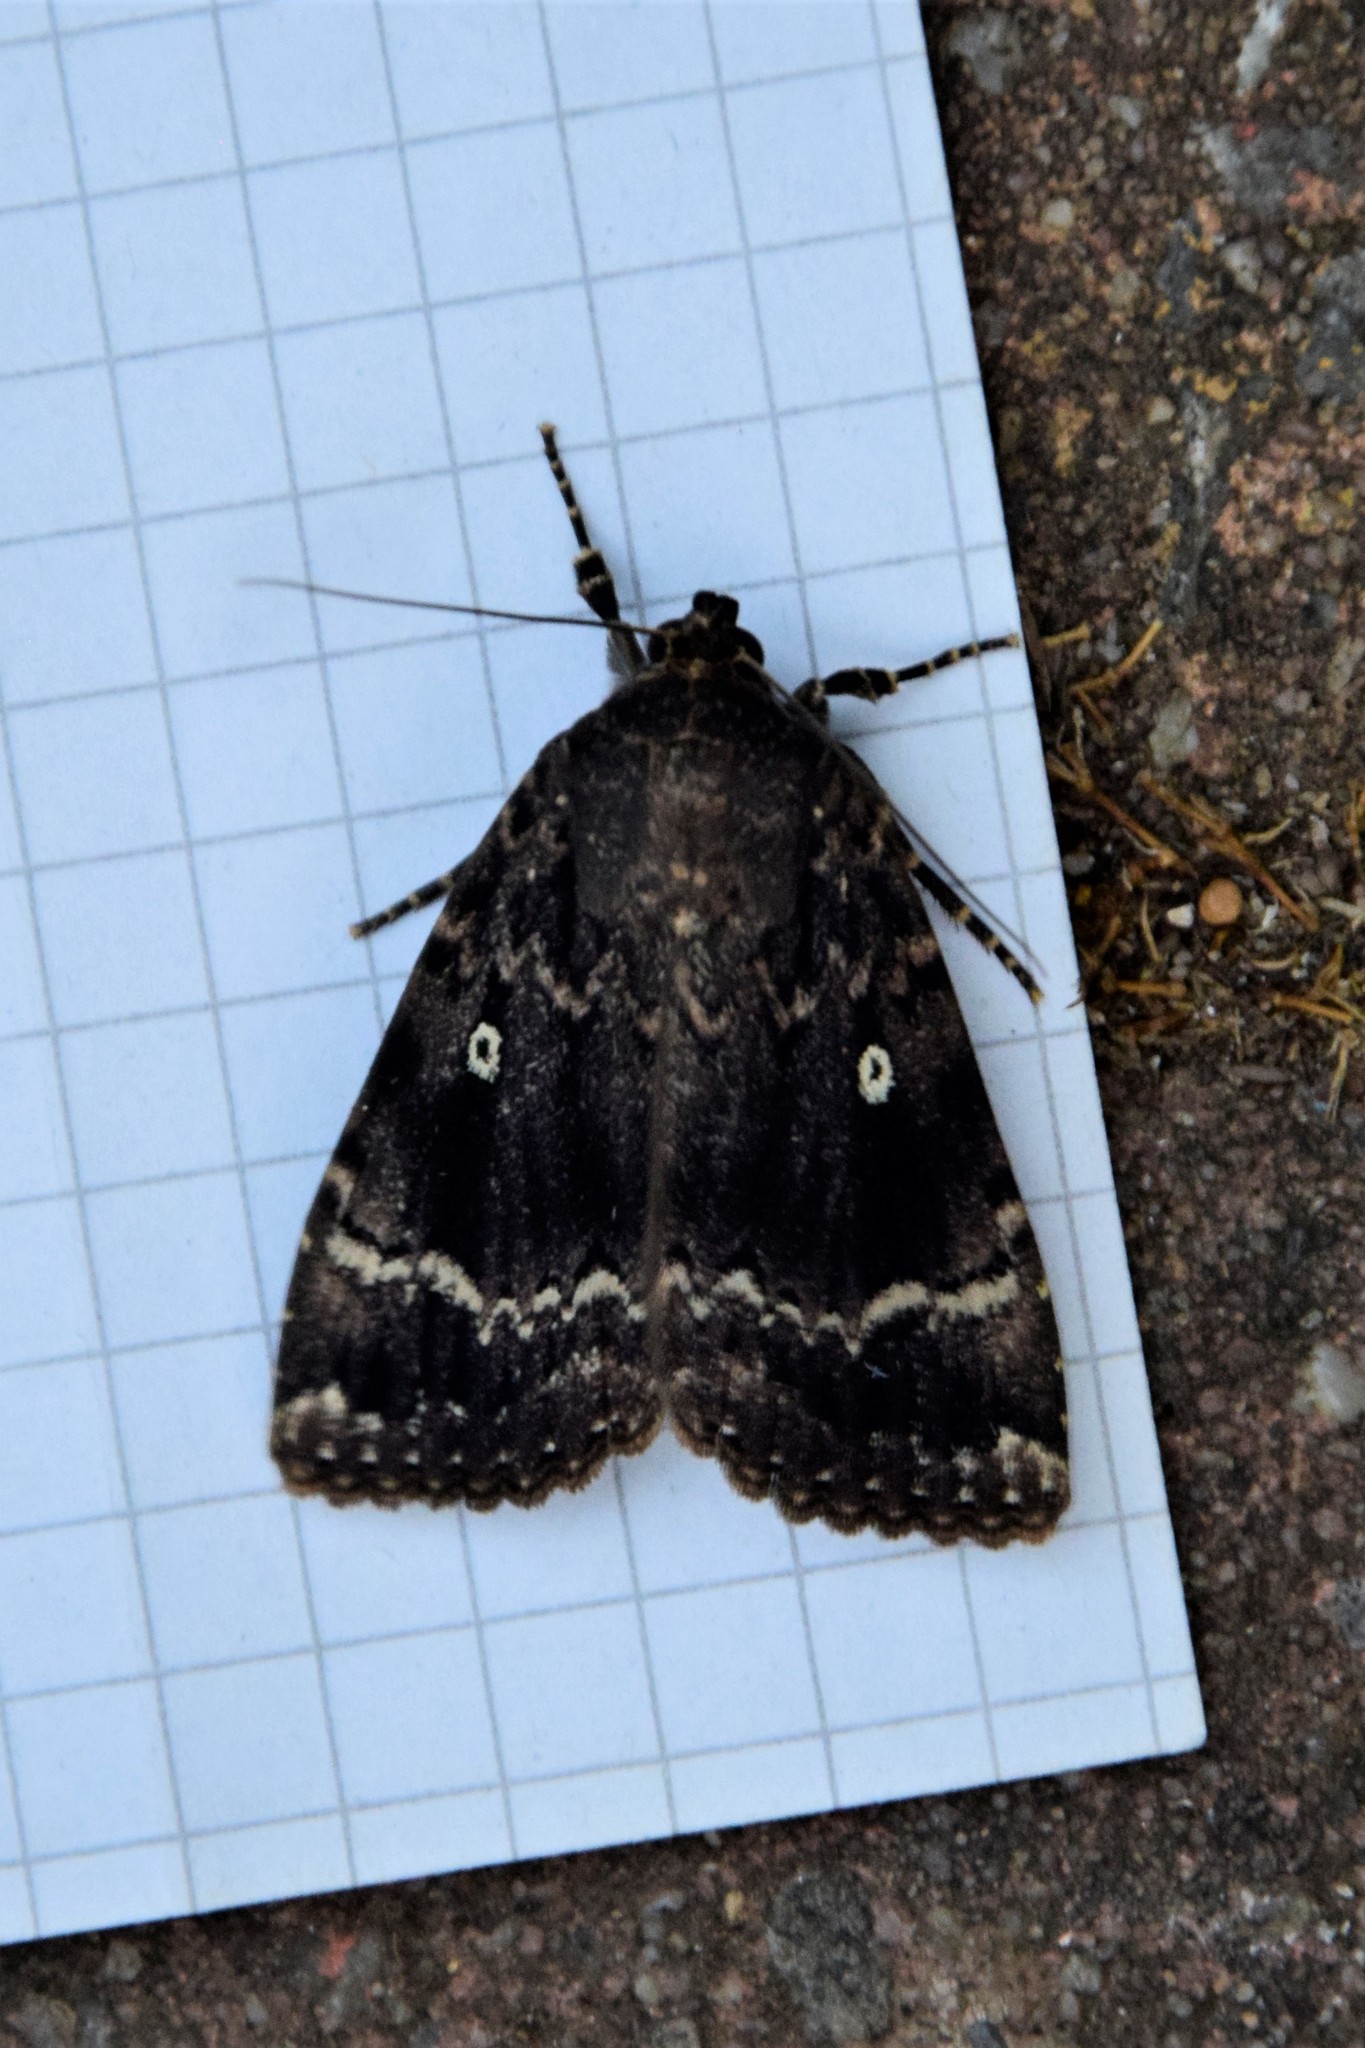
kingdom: Animalia
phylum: Arthropoda
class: Insecta
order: Lepidoptera
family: Noctuidae
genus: Amphipyra
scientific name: Amphipyra pyramidea
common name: Copper underwing
